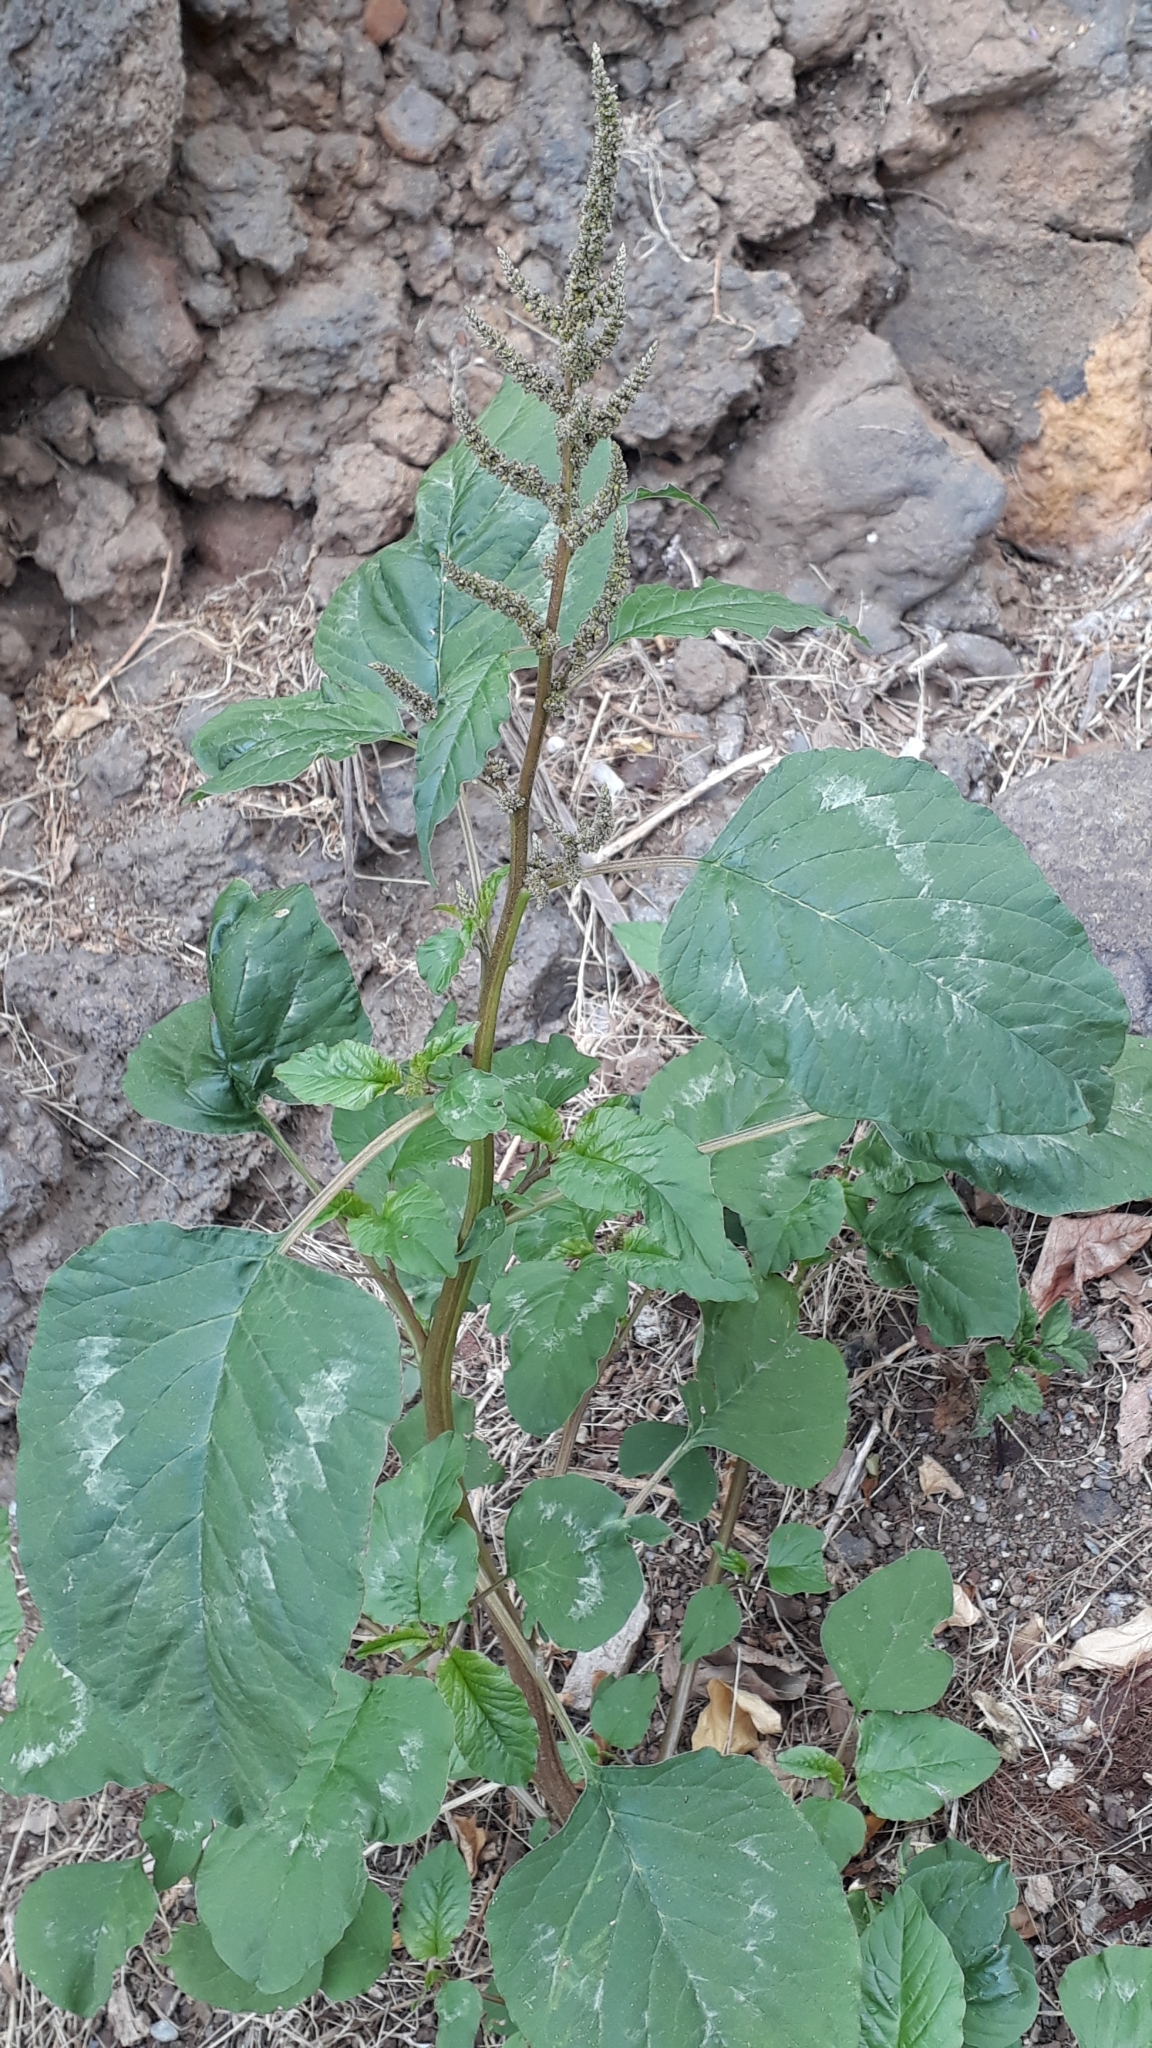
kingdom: Plantae
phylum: Tracheophyta
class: Magnoliopsida
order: Caryophyllales
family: Amaranthaceae
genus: Amaranthus
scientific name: Amaranthus blitum
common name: Purple amaranth
